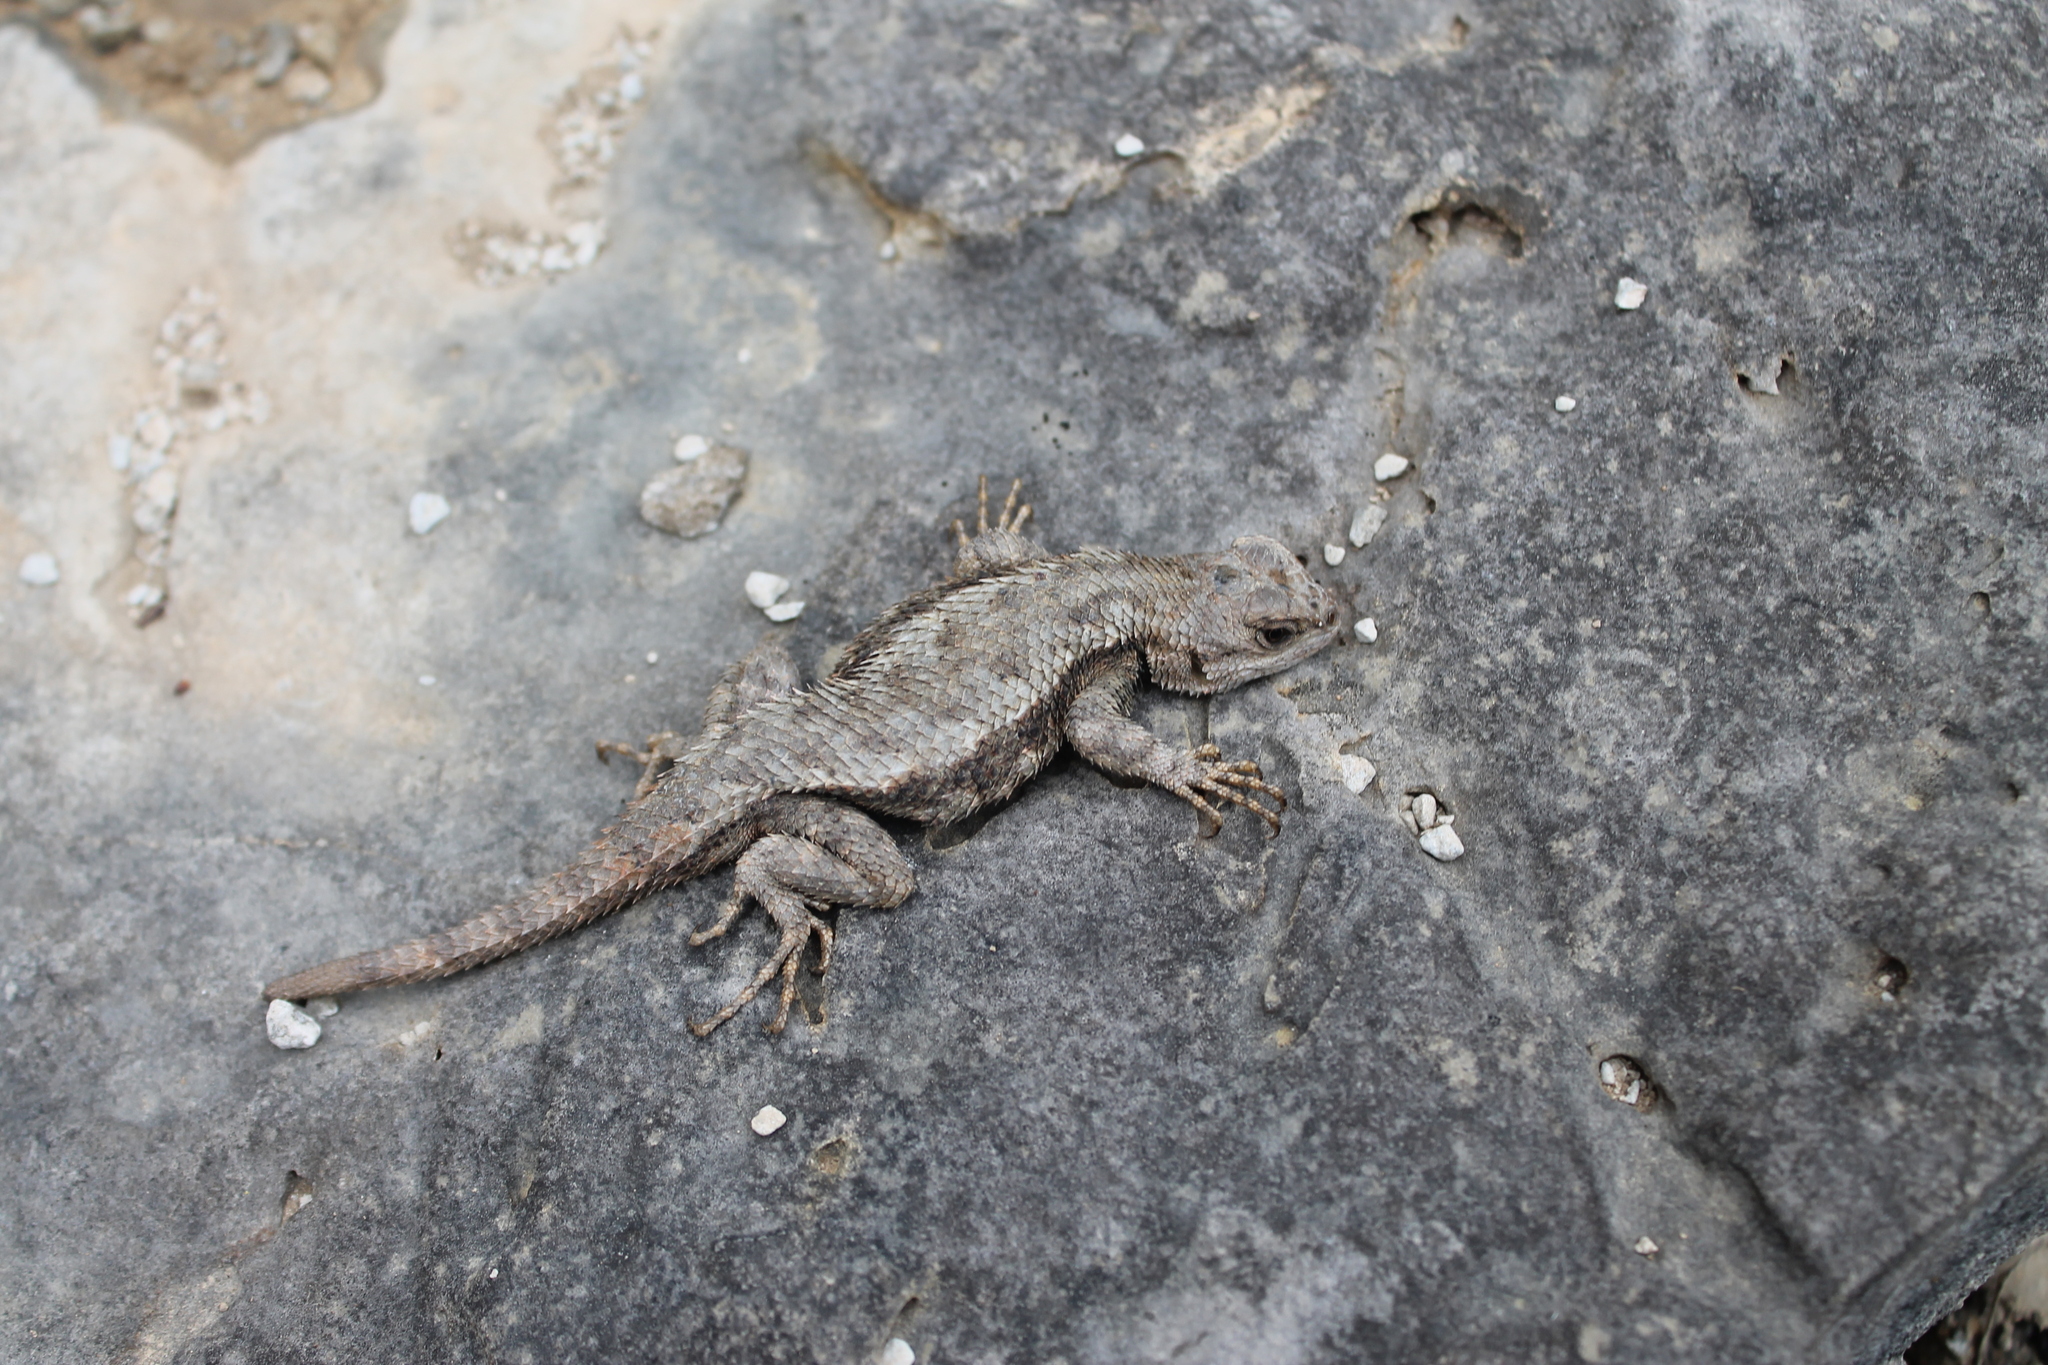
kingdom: Animalia
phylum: Chordata
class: Squamata
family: Phrynosomatidae
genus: Sceloporus
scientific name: Sceloporus undulatus
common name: Eastern fence lizard
